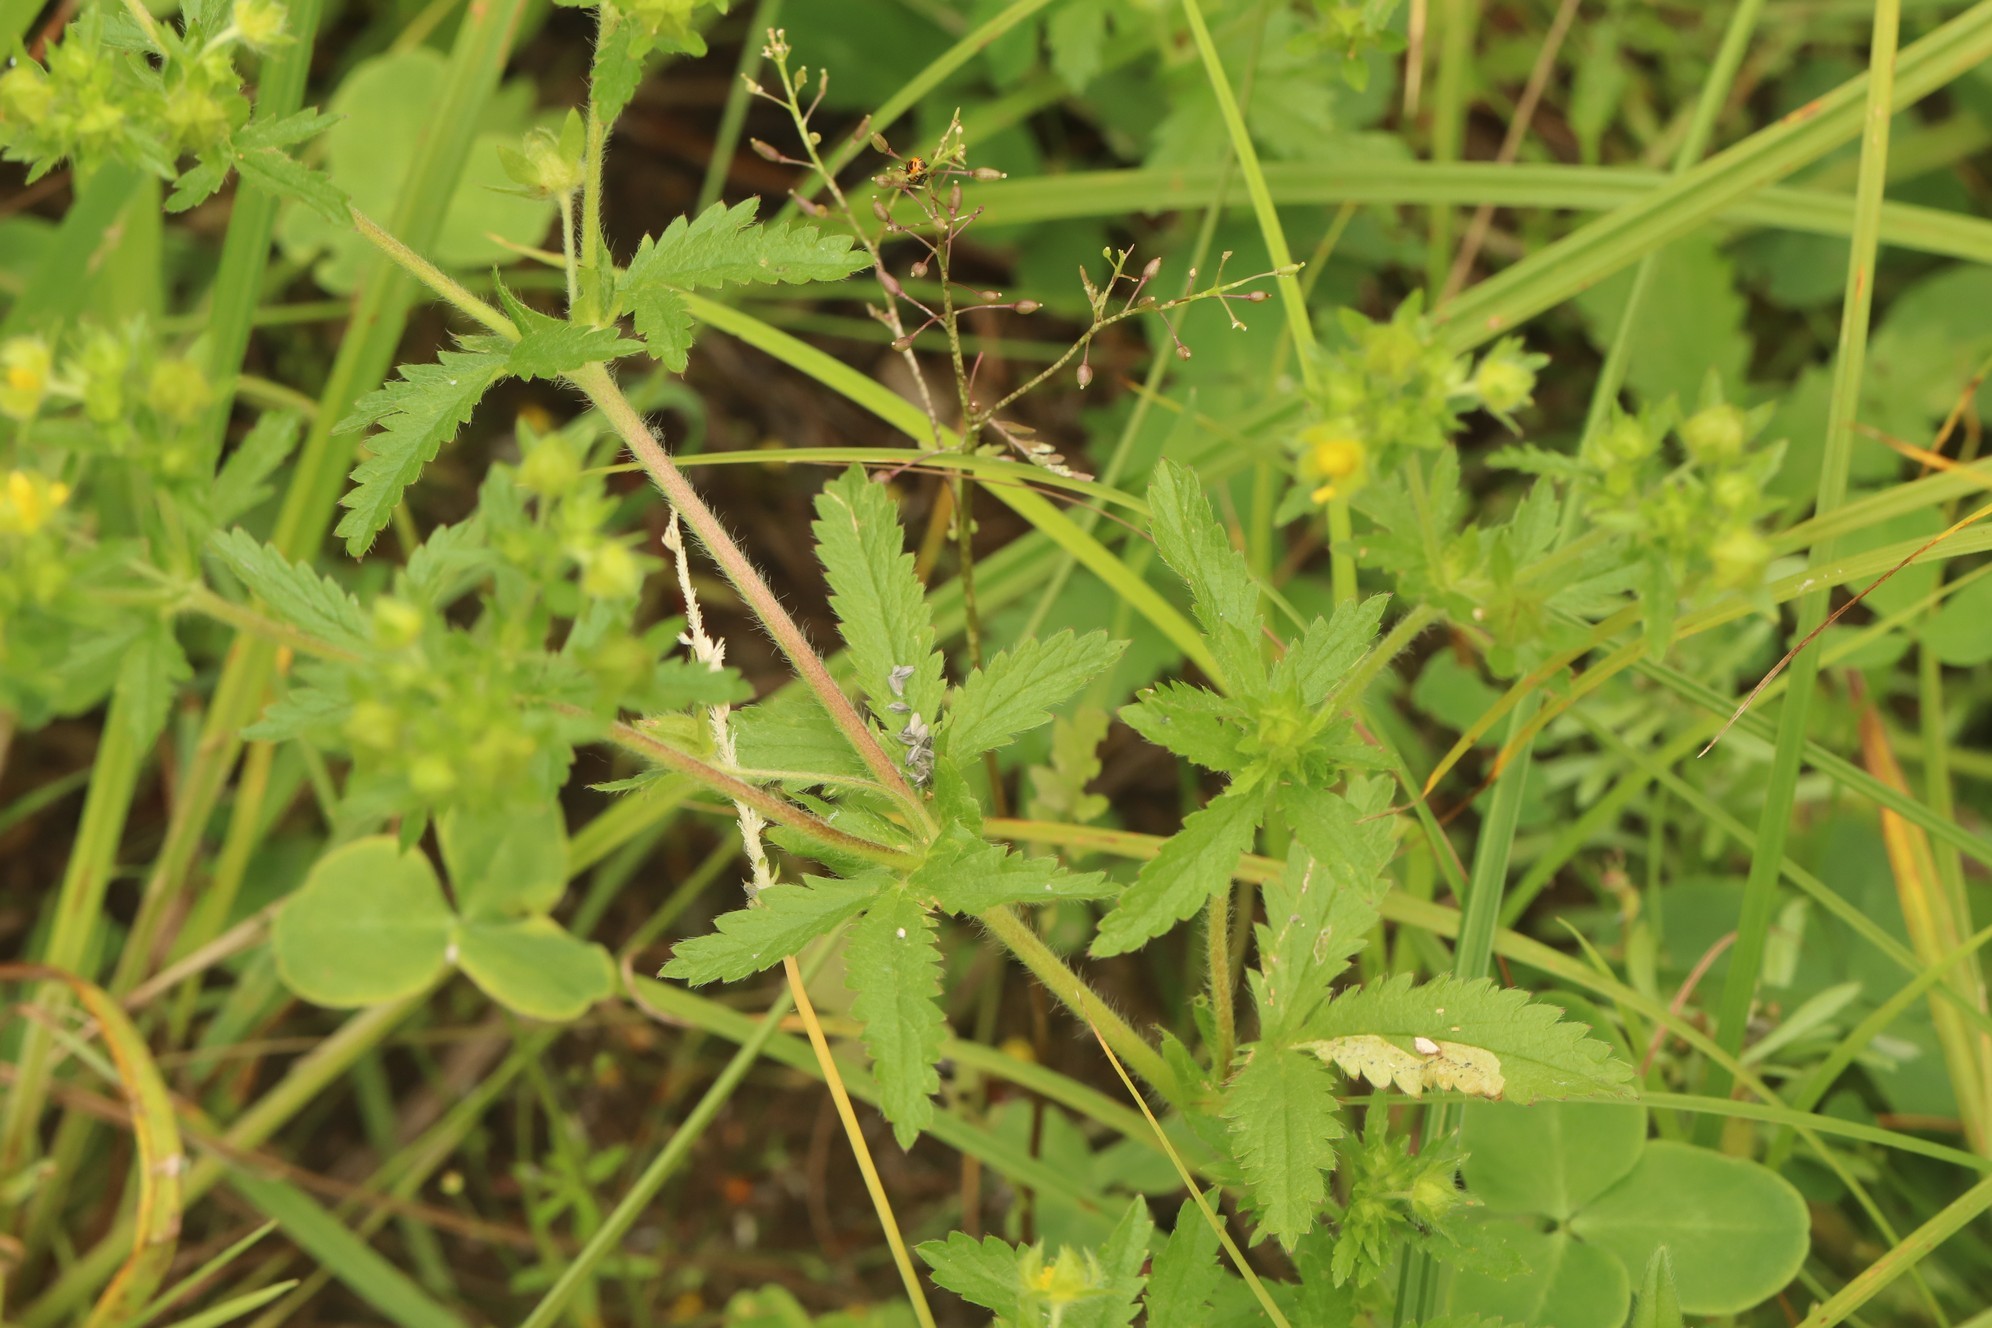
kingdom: Plantae
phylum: Tracheophyta
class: Magnoliopsida
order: Rosales
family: Rosaceae
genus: Potentilla
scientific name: Potentilla norvegica
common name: Ternate-leaved cinquefoil
